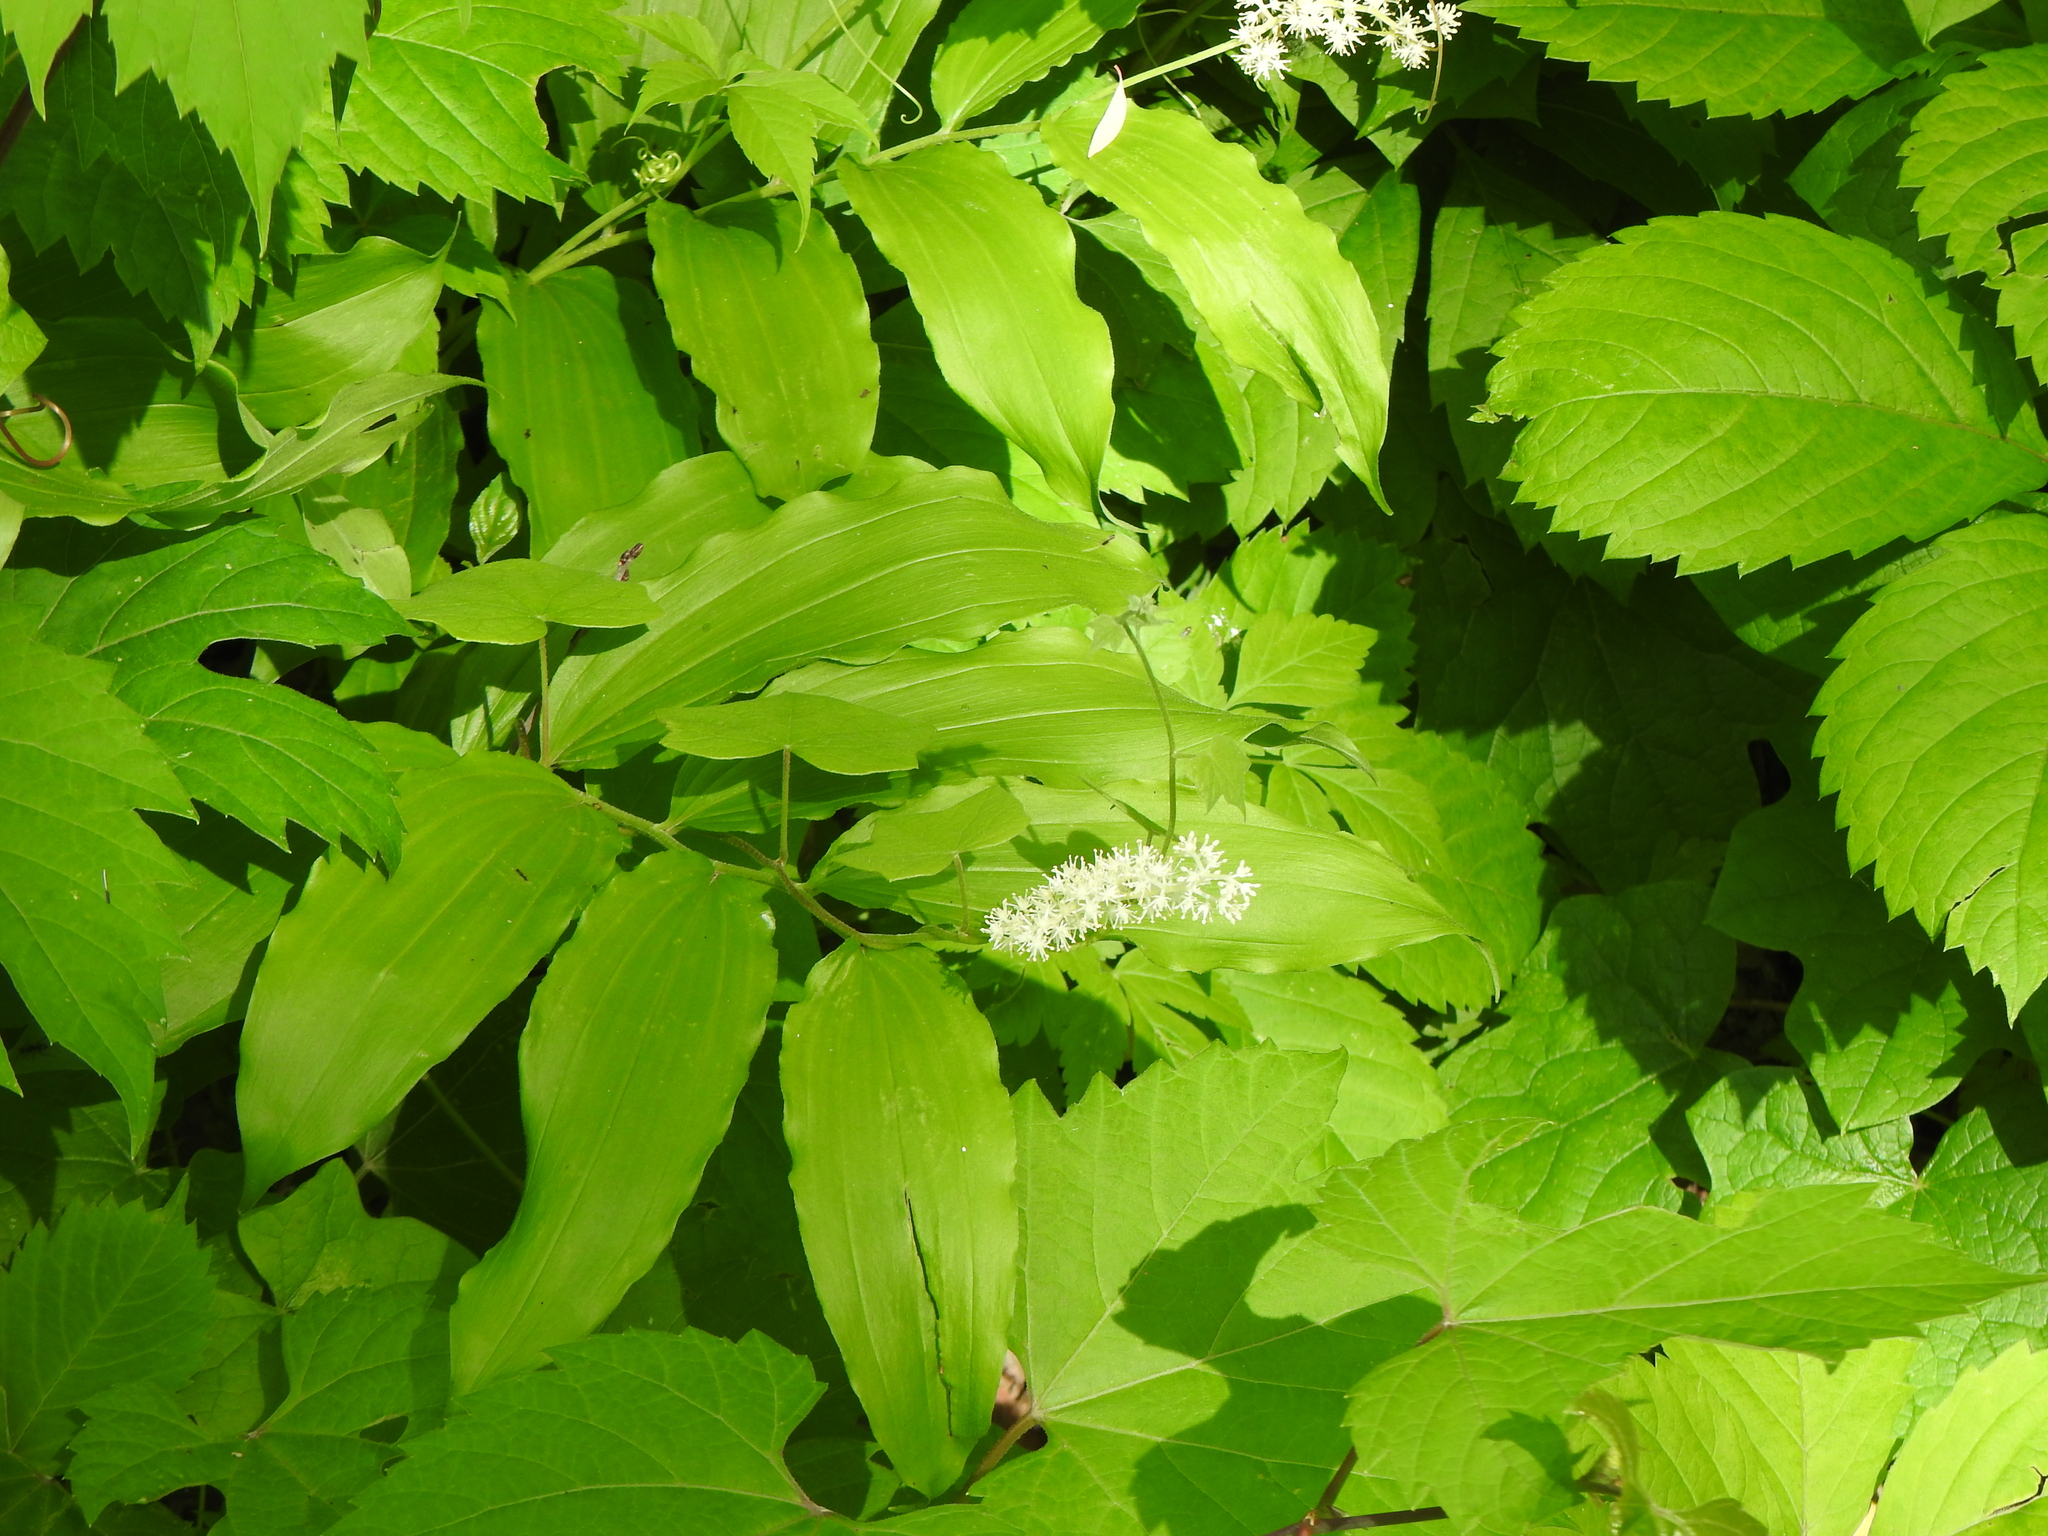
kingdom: Plantae
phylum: Tracheophyta
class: Liliopsida
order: Asparagales
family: Asparagaceae
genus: Maianthemum
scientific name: Maianthemum racemosum
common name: False spikenard
